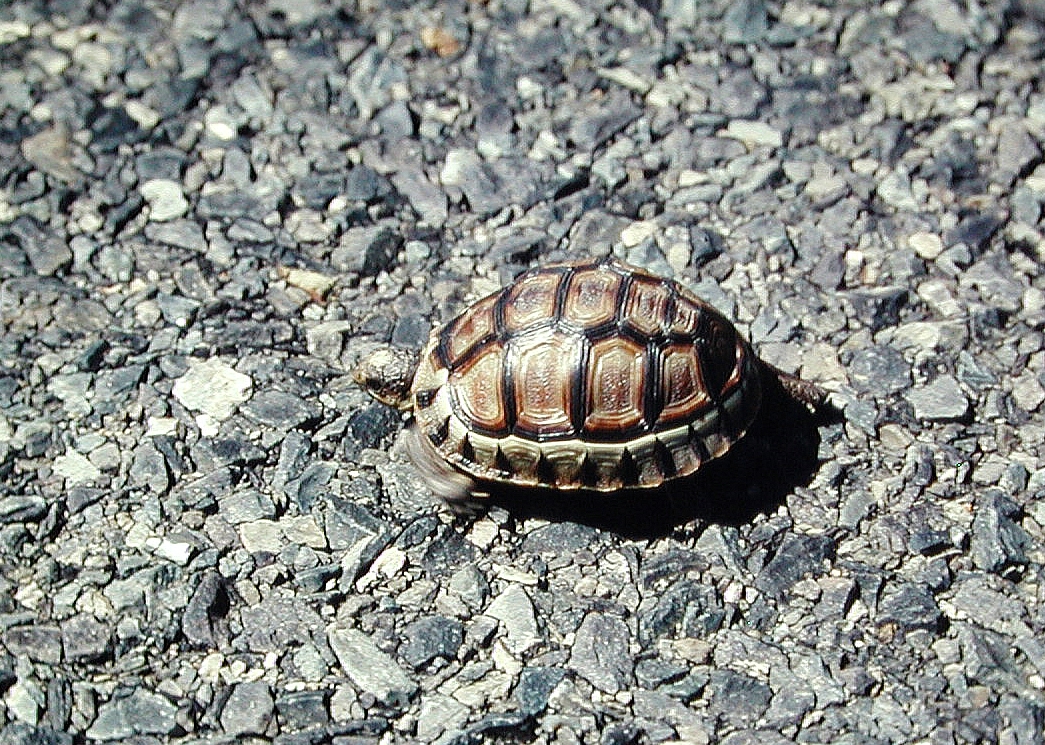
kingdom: Animalia
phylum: Chordata
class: Testudines
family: Testudinidae
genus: Chersina
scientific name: Chersina angulata
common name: South african bowsprit tortoise
